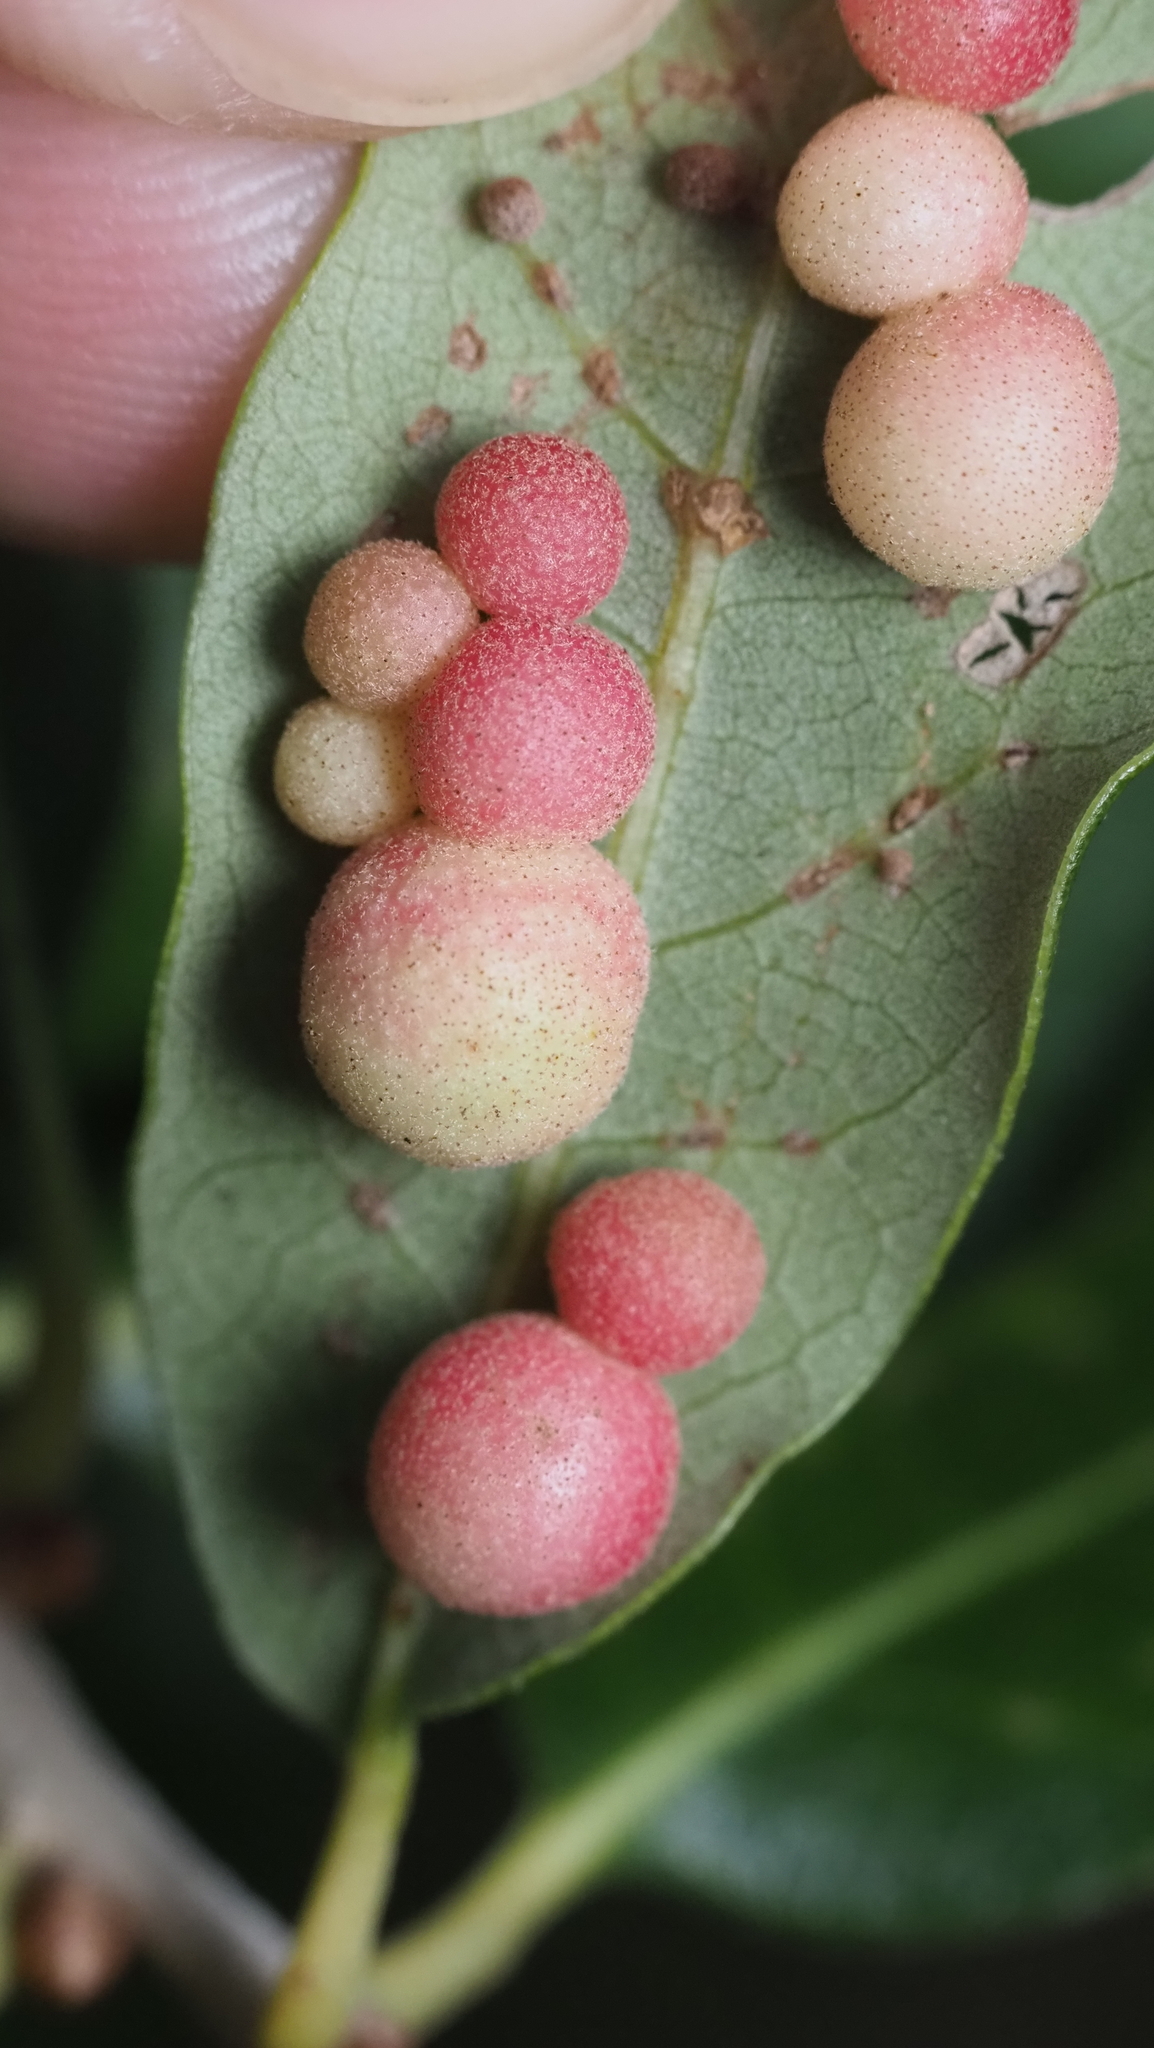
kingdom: Animalia
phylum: Arthropoda
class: Insecta
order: Hymenoptera
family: Cynipidae
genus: Belonocnema
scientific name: Belonocnema kinseyi
